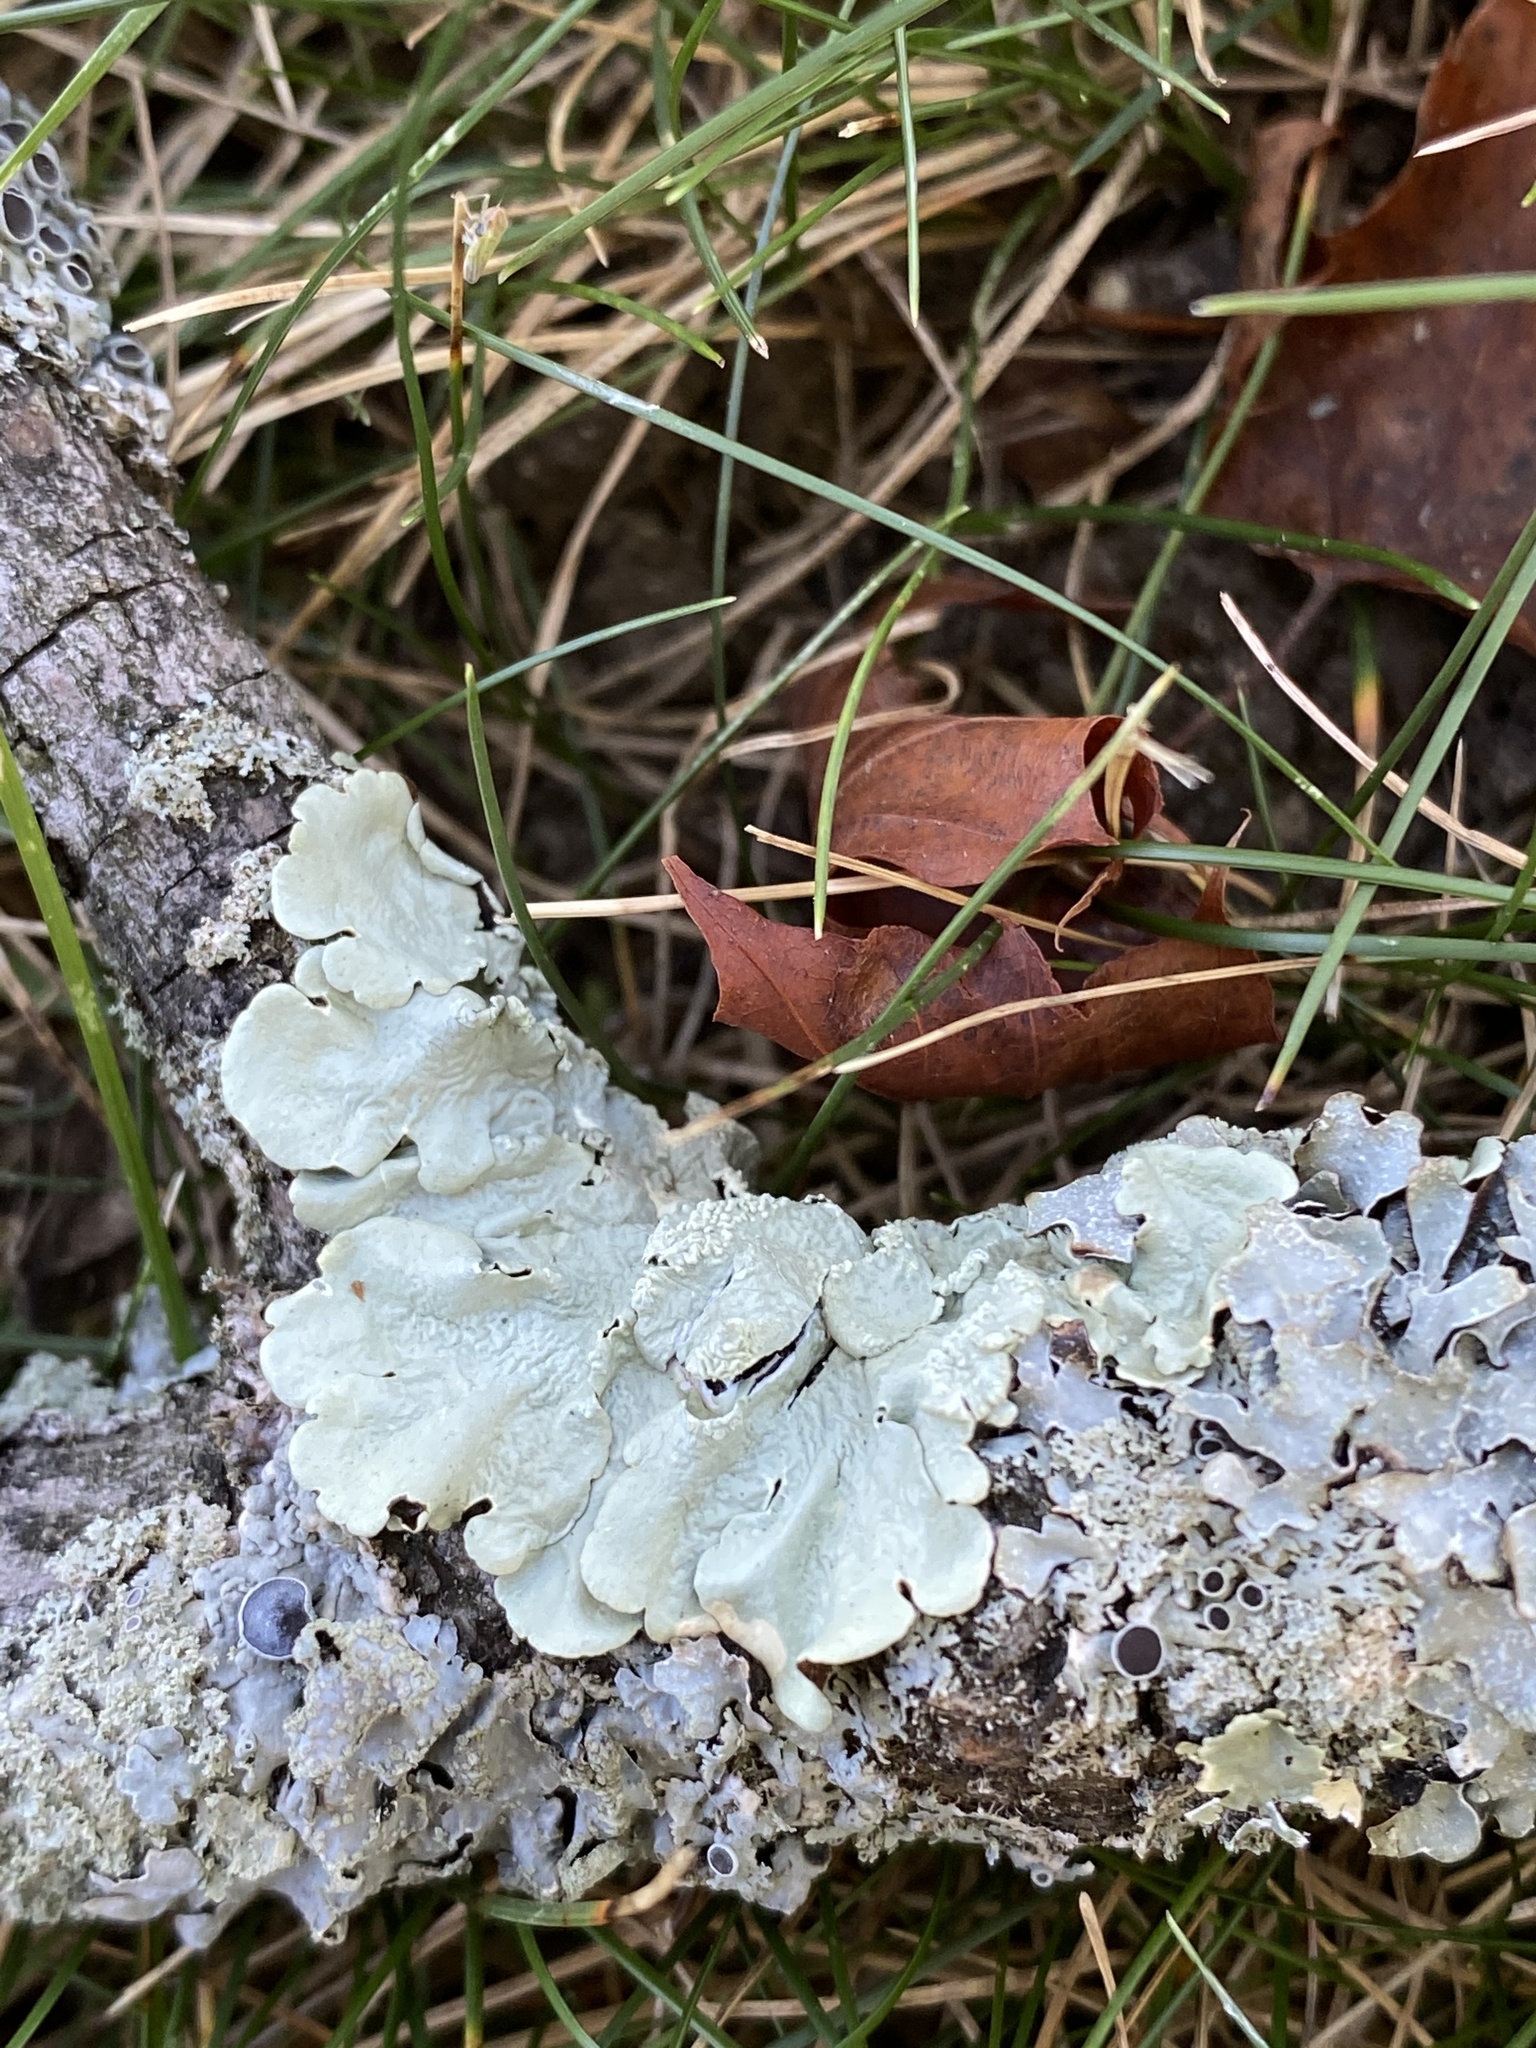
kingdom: Fungi
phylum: Ascomycota
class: Lecanoromycetes
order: Lecanorales
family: Parmeliaceae
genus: Flavoparmelia
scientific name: Flavoparmelia caperata
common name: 40-mile per hour lichen
